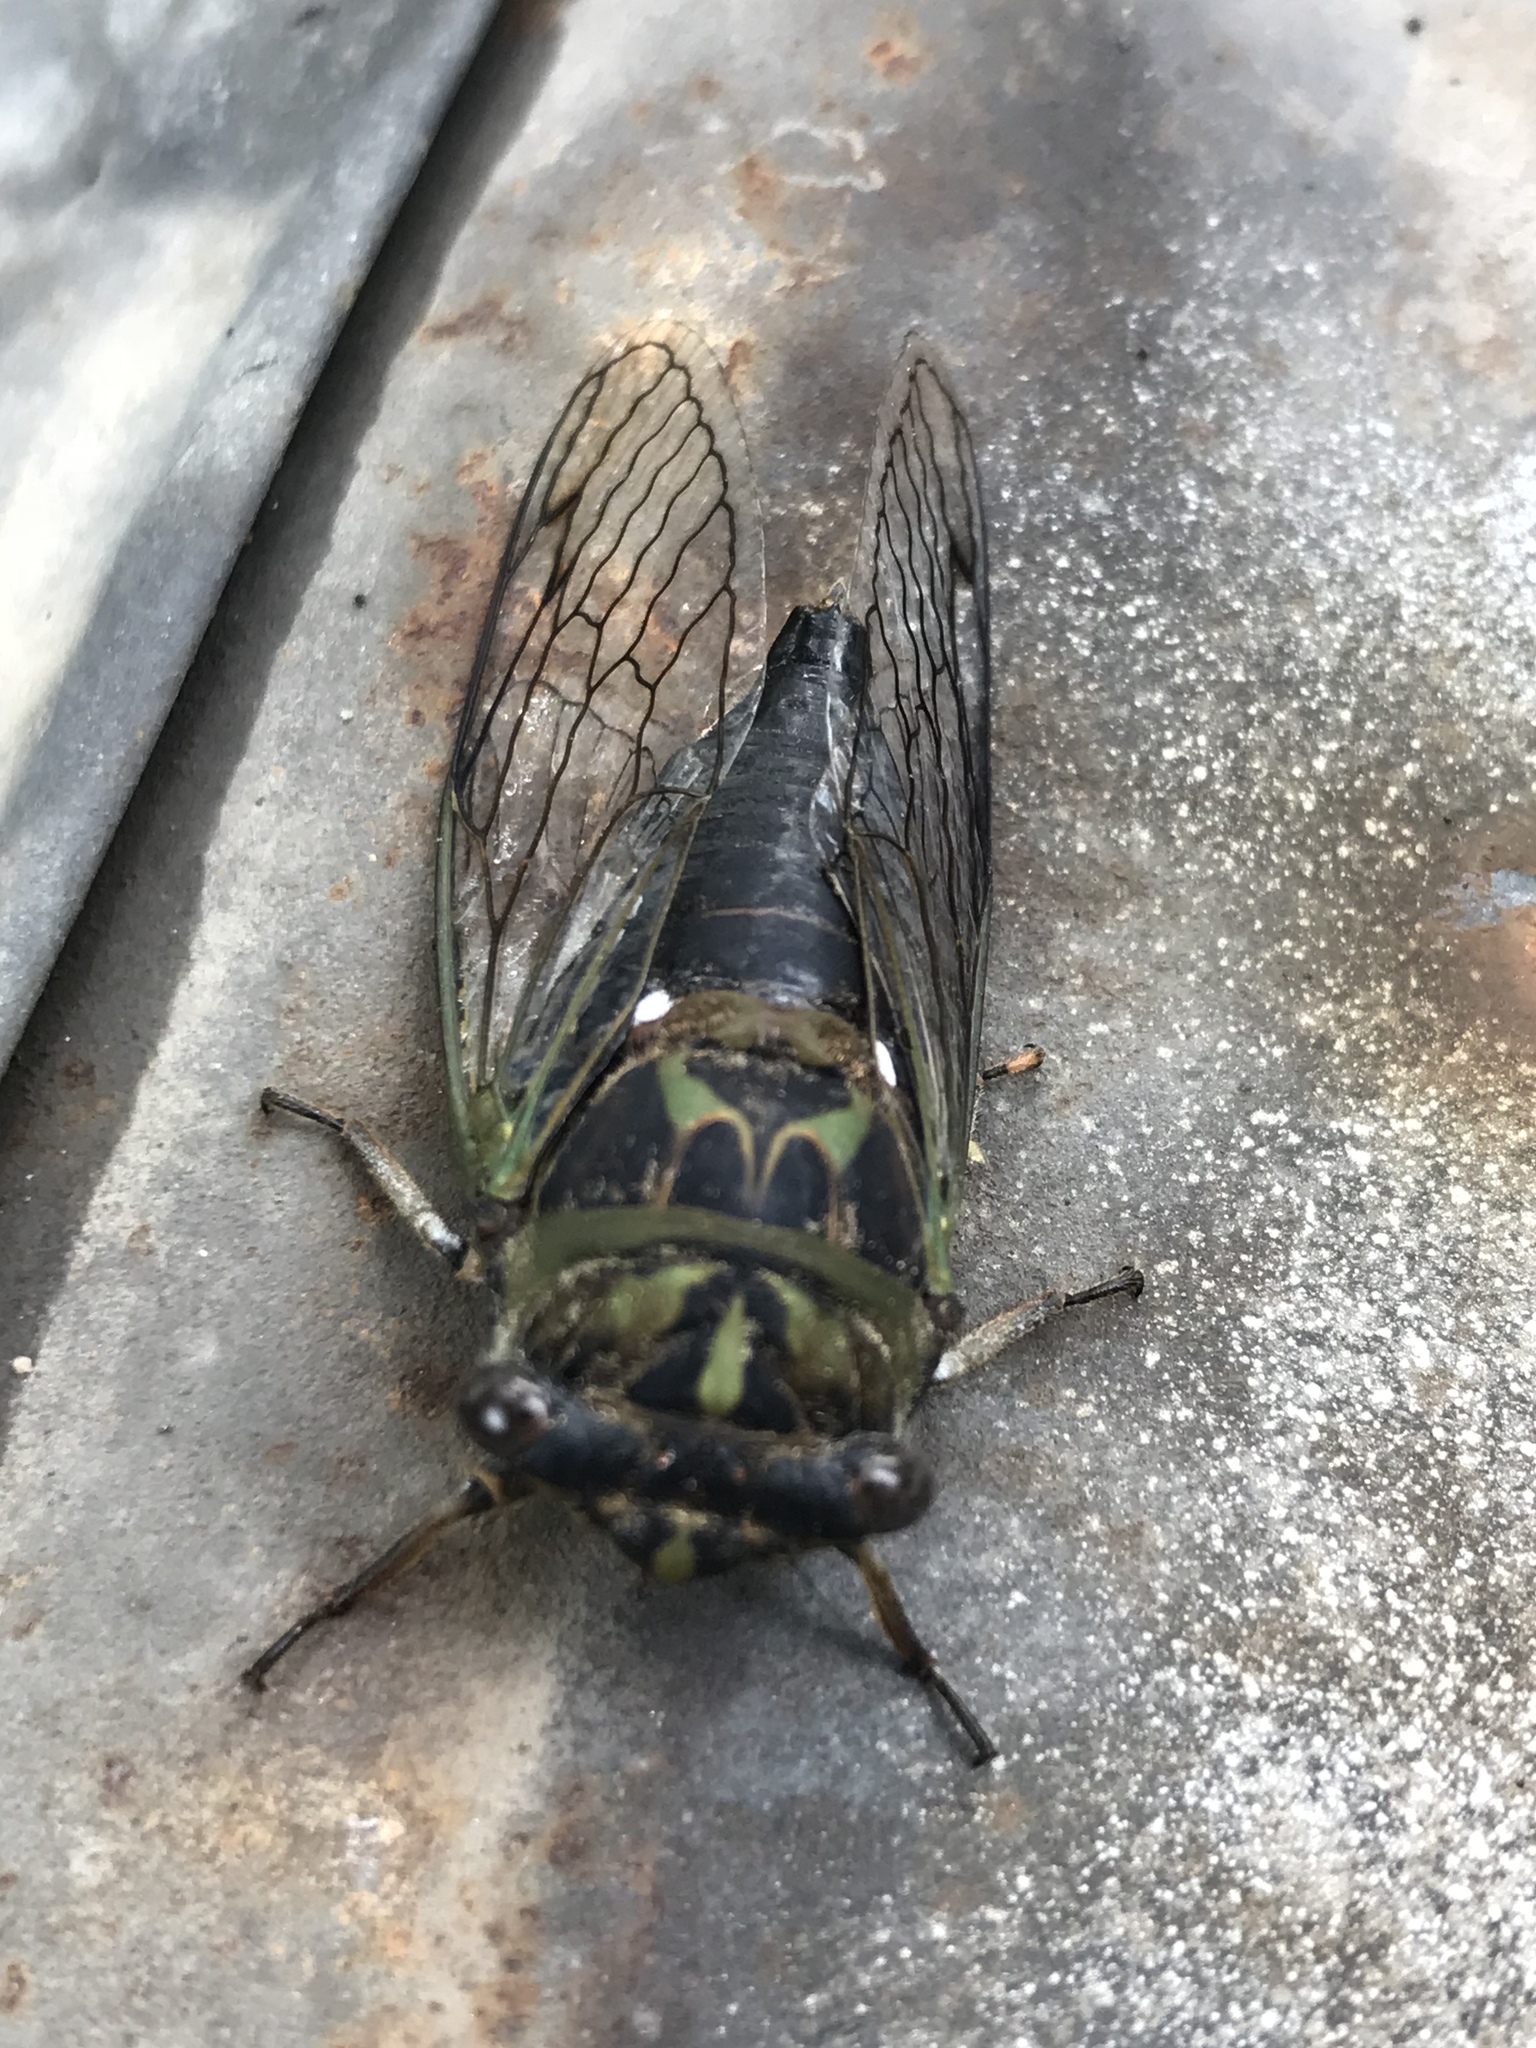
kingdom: Animalia
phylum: Arthropoda
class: Insecta
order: Hemiptera
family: Cicadidae
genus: Neotibicen
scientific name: Neotibicen canicularis
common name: God-day cicada
